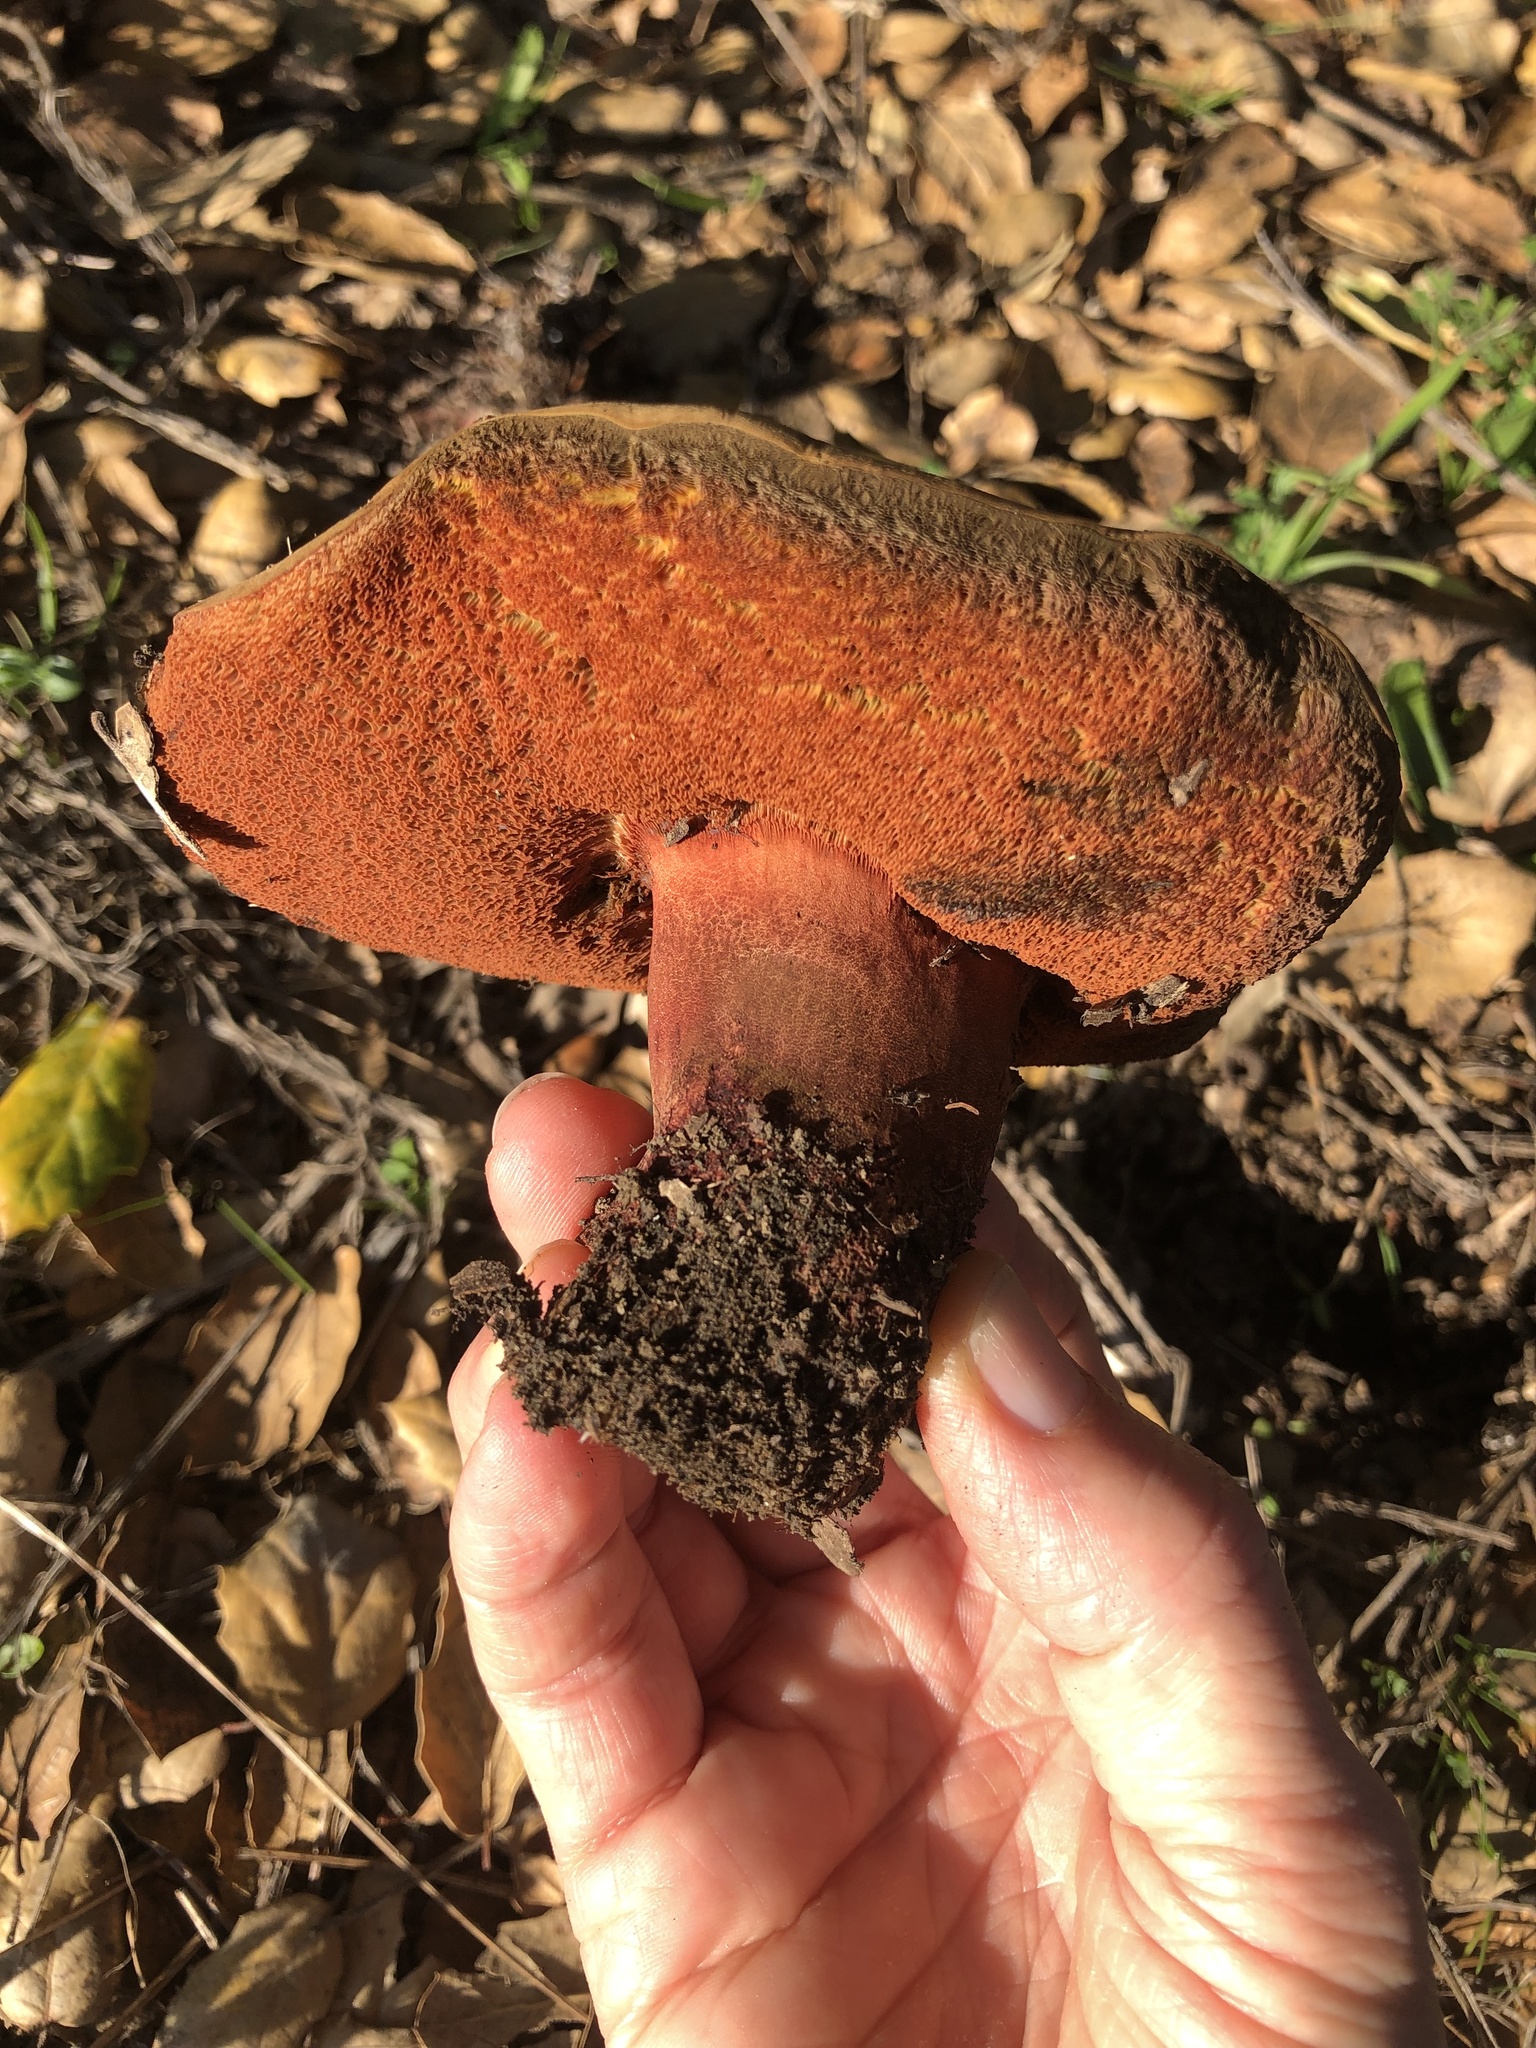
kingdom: Fungi
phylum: Basidiomycota
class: Agaricomycetes
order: Boletales
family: Boletaceae
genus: Suillellus
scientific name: Suillellus amygdalinus
